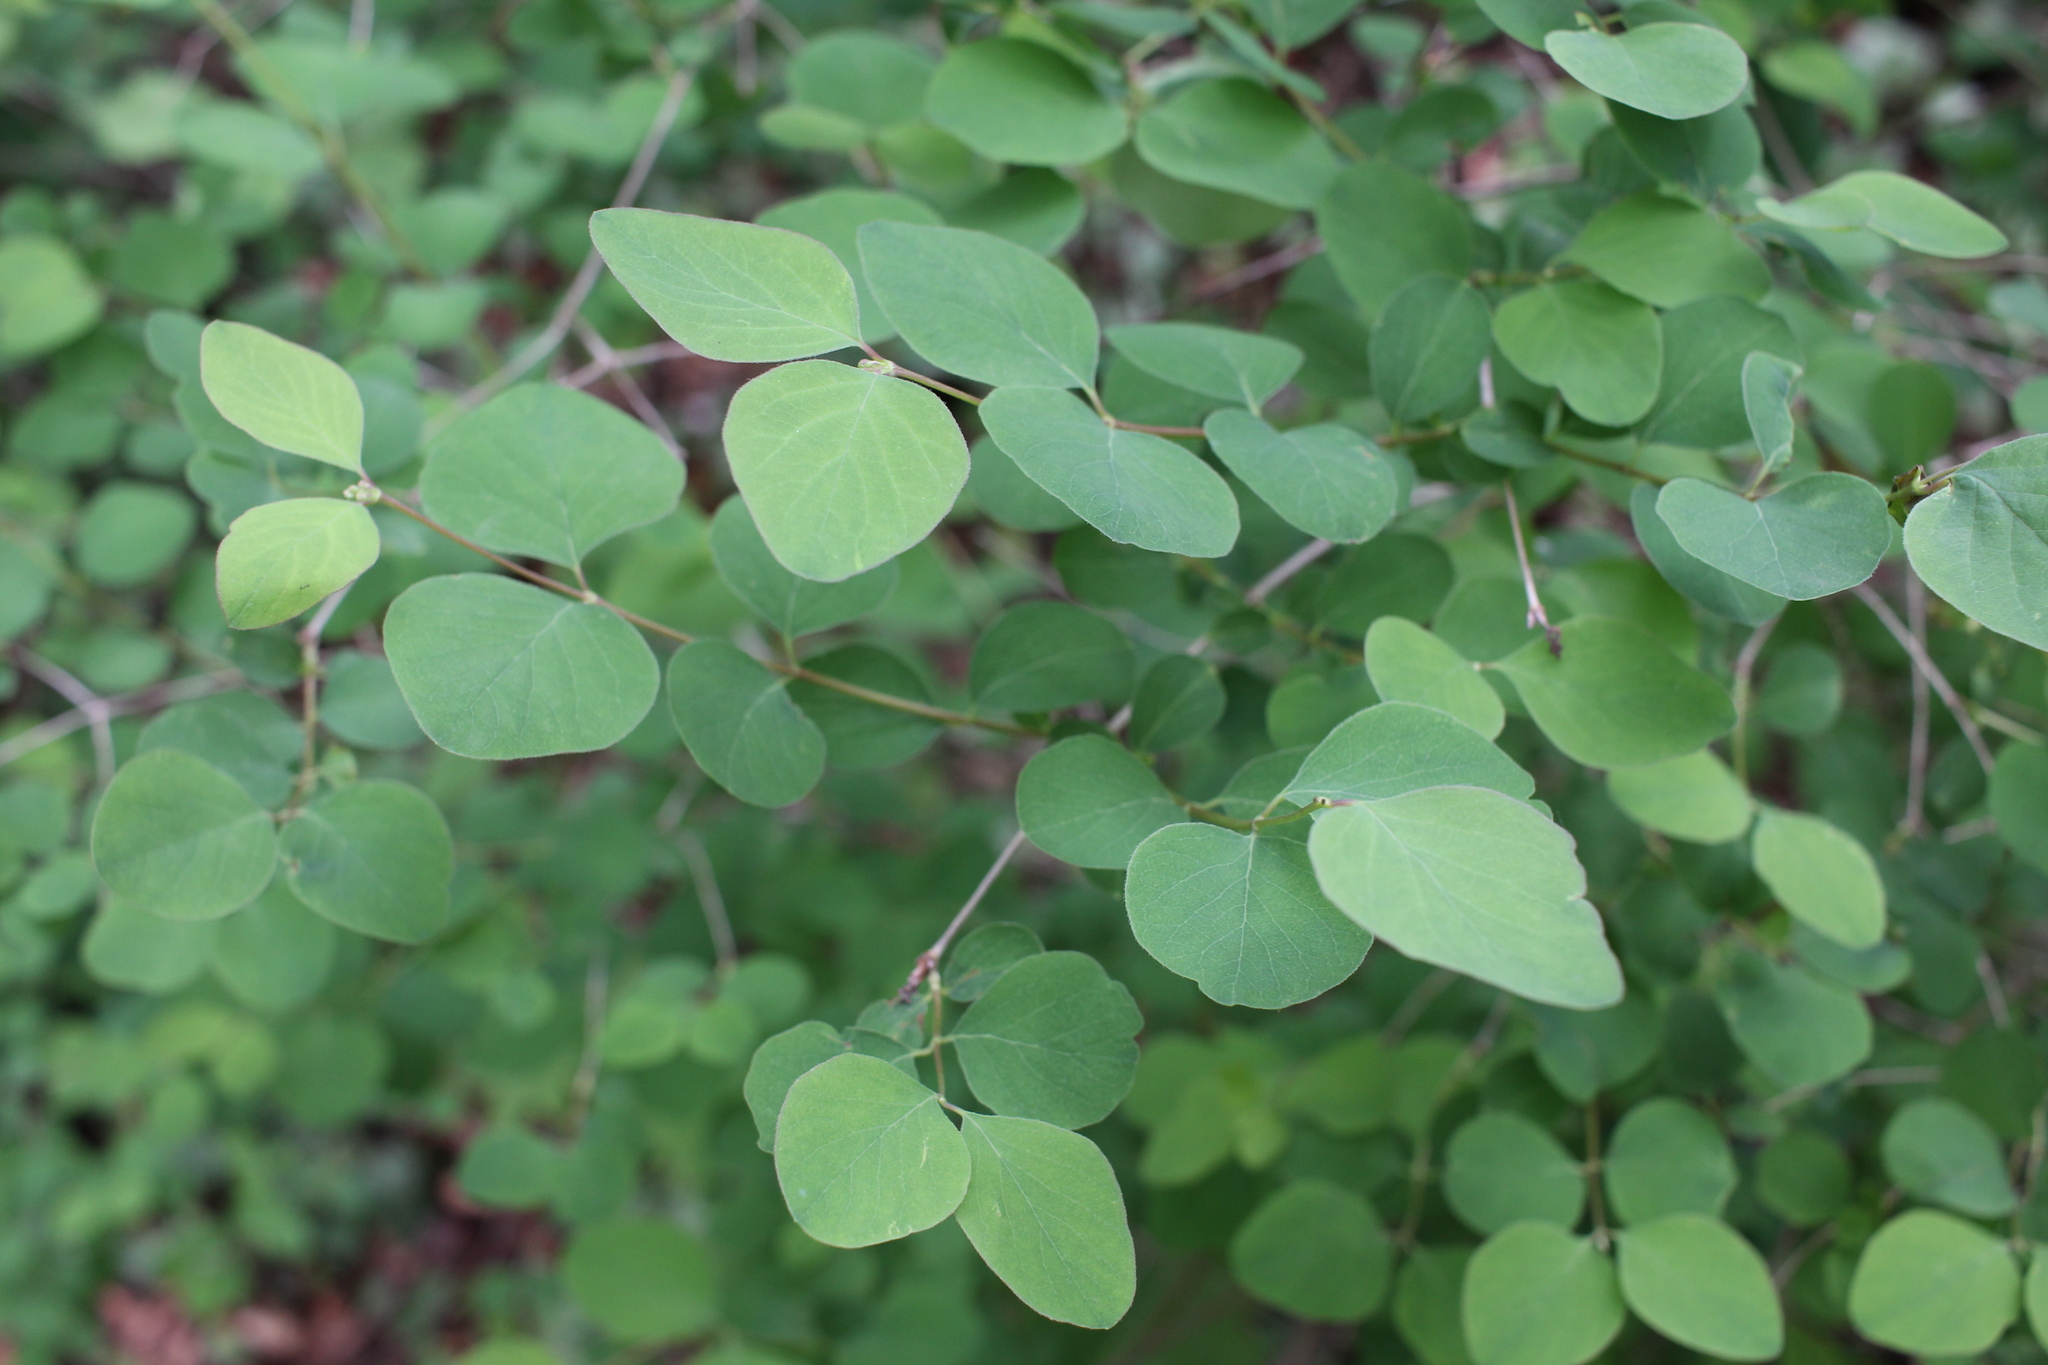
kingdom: Plantae
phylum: Tracheophyta
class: Magnoliopsida
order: Dipsacales
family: Caprifoliaceae
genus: Symphoricarpos
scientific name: Symphoricarpos albus
